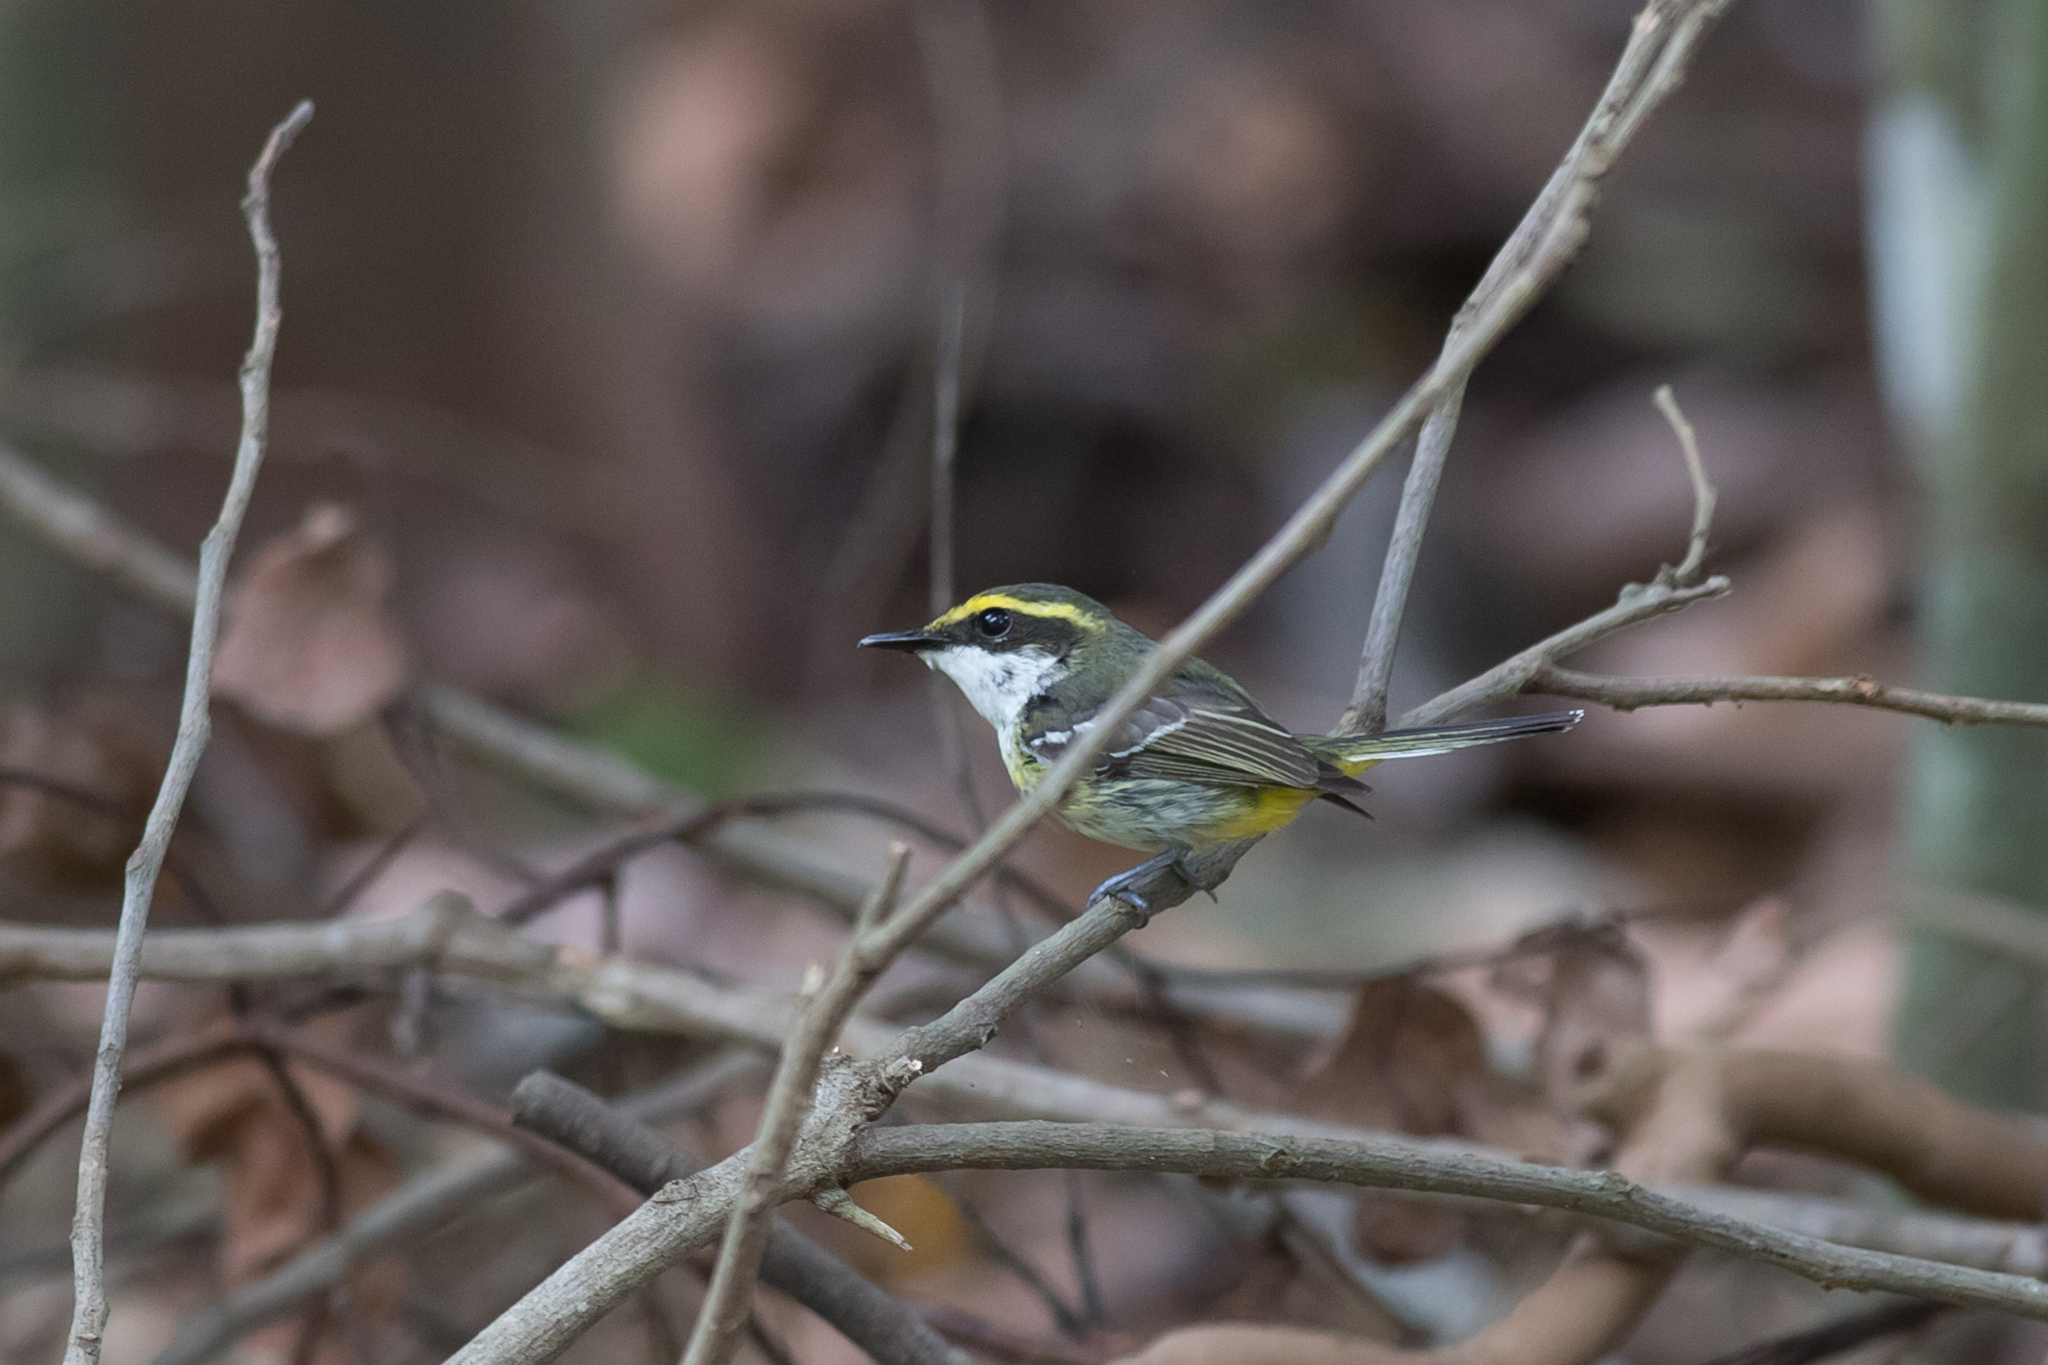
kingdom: Animalia
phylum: Chordata
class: Aves
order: Passeriformes
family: Machaerirhynchidae
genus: Machaerirhynchus
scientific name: Machaerirhynchus flaviventer
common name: Yellow-breasted boatbill
